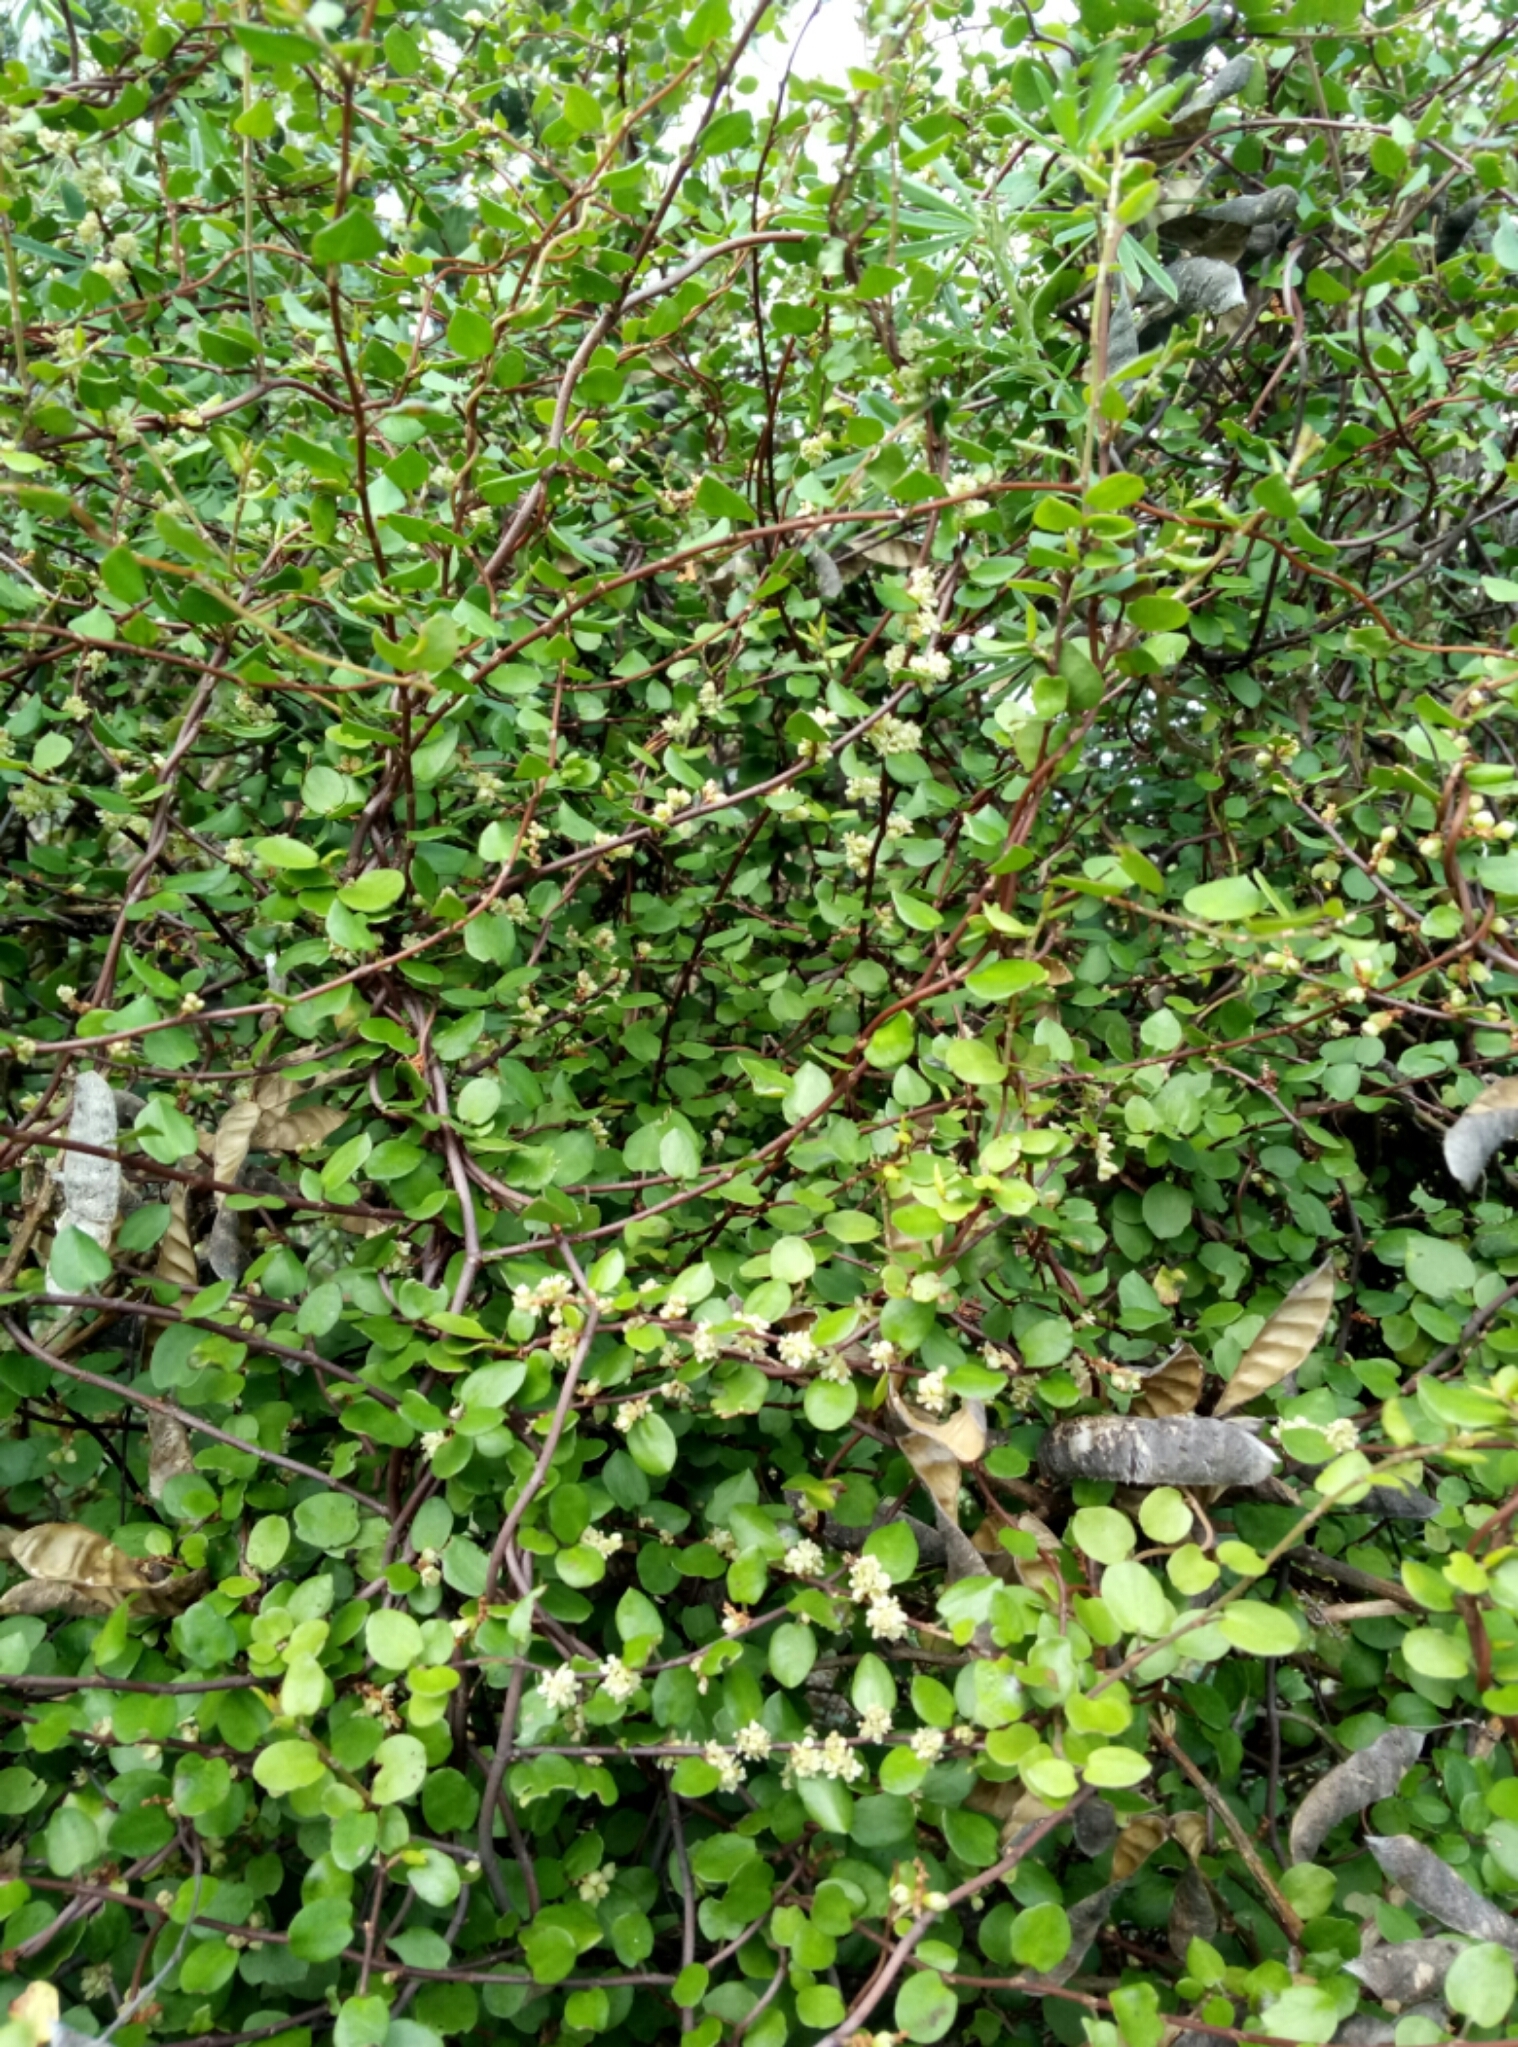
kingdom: Plantae
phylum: Tracheophyta
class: Magnoliopsida
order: Caryophyllales
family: Polygonaceae
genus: Muehlenbeckia
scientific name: Muehlenbeckia complexa
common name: Wireplant
